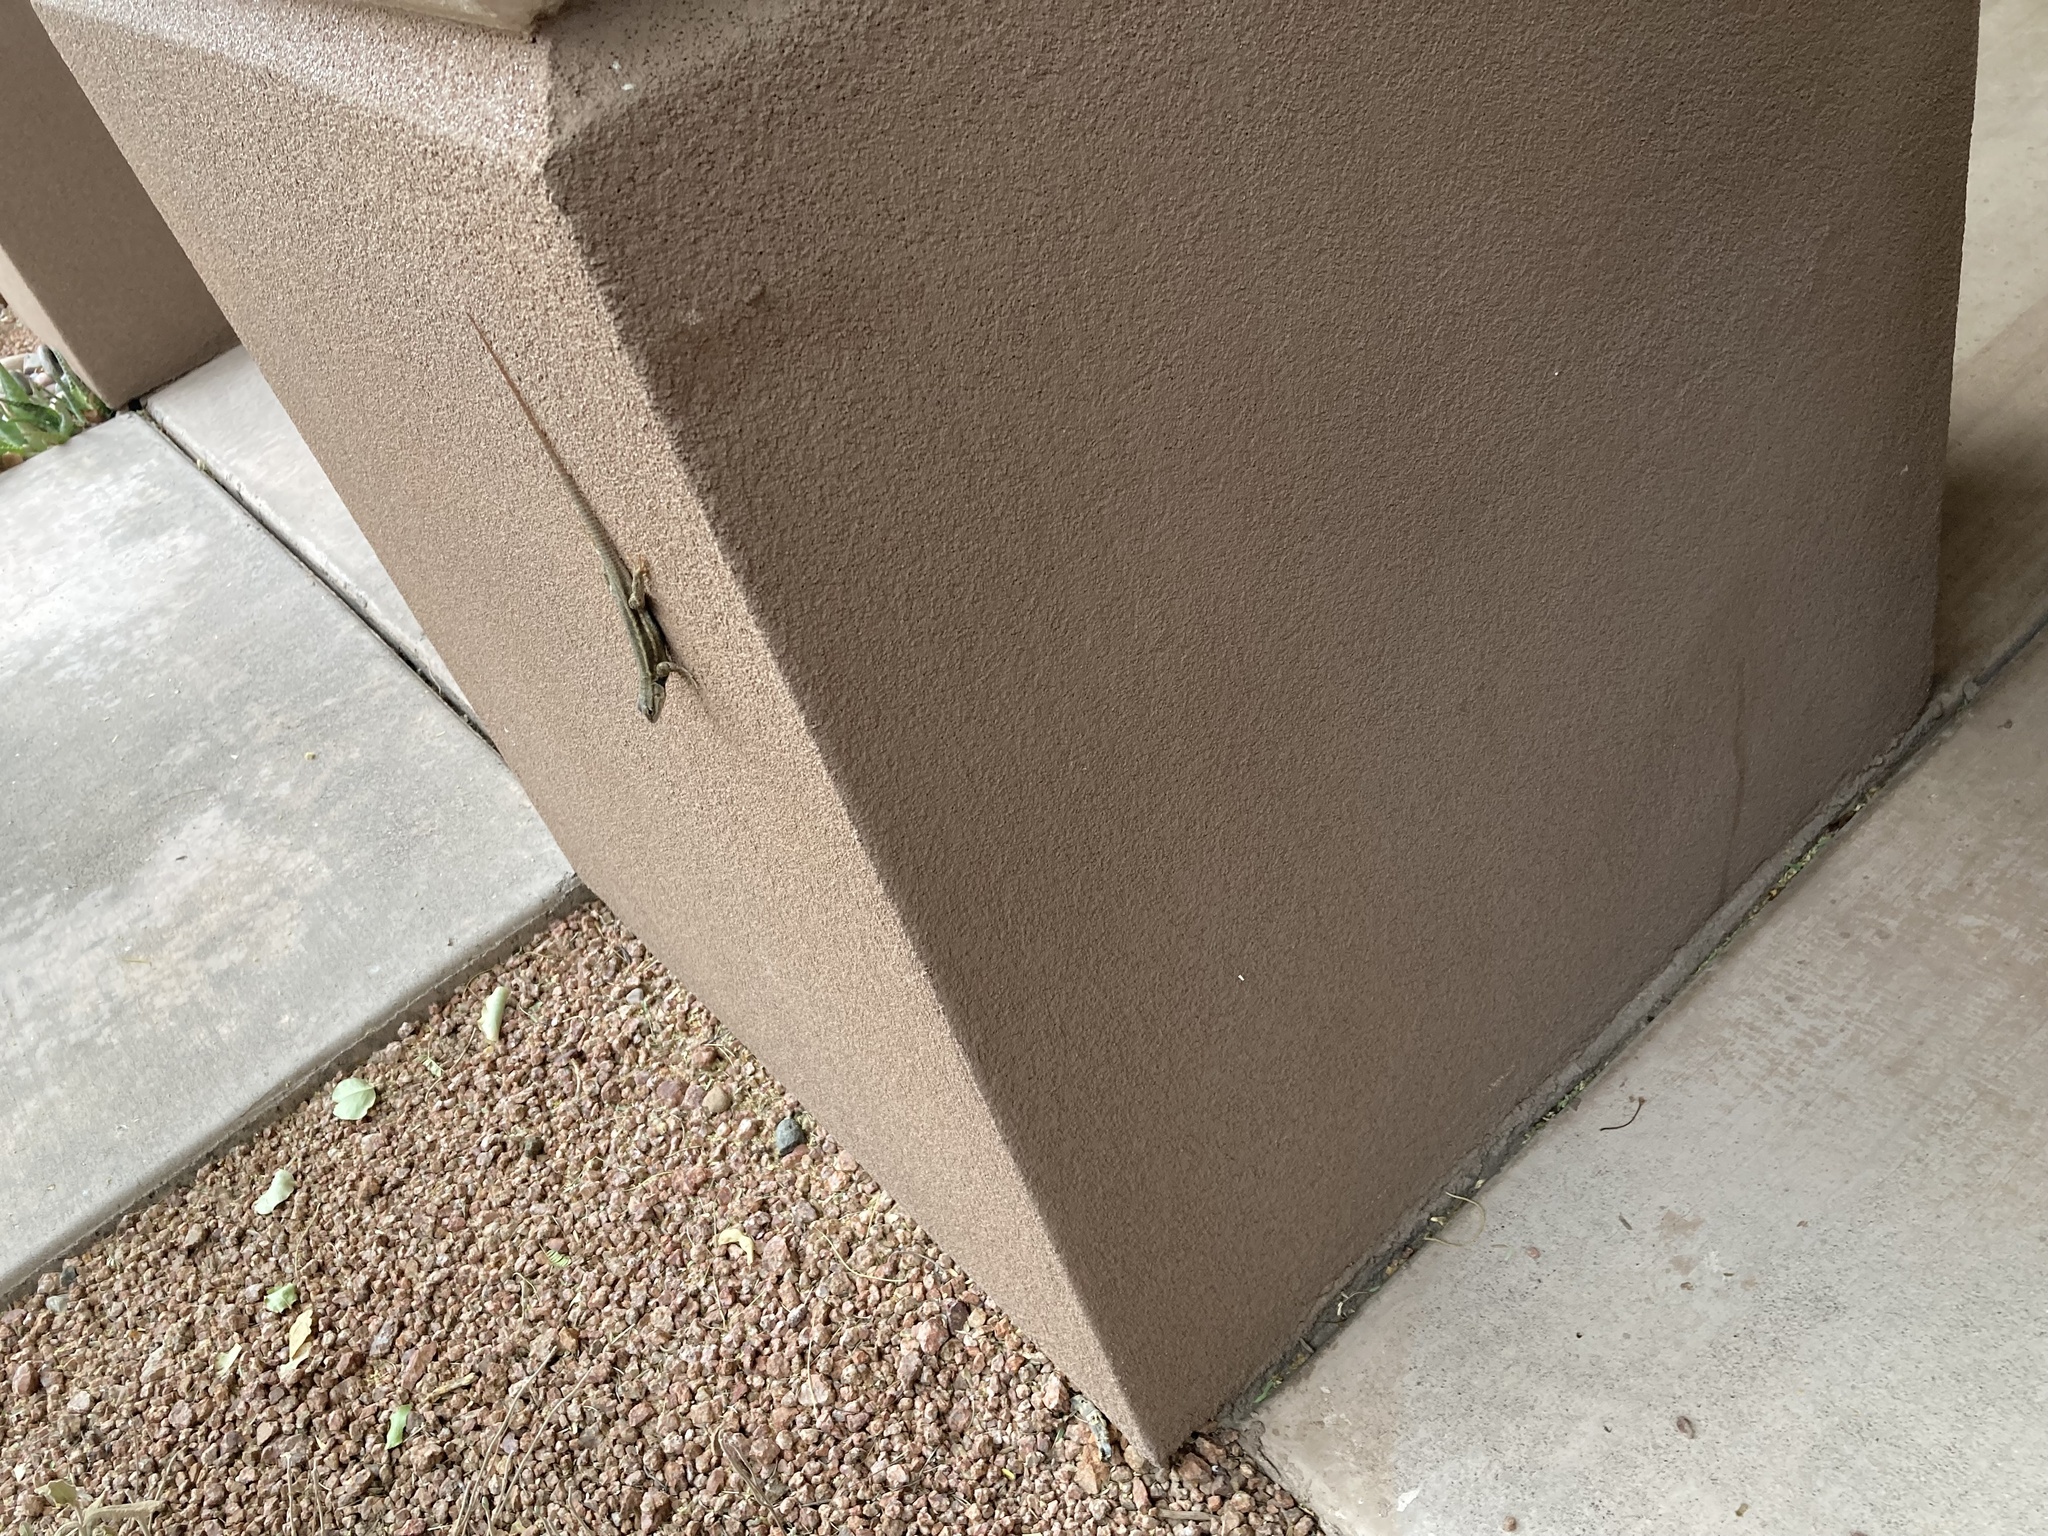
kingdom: Animalia
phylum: Chordata
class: Squamata
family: Phrynosomatidae
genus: Sceloporus
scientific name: Sceloporus tristichus
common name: Plateau fence lizard
